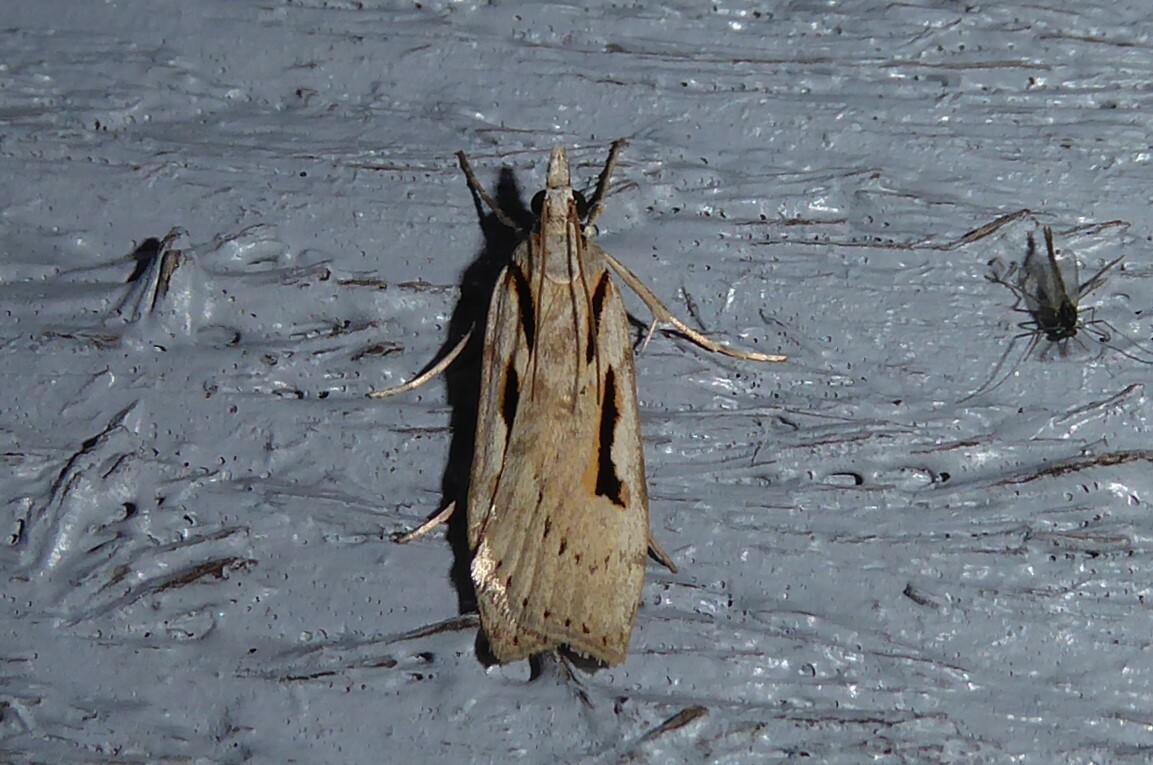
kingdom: Animalia
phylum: Arthropoda
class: Insecta
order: Lepidoptera
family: Crambidae
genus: Scoparia
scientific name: Scoparia rotuellus
